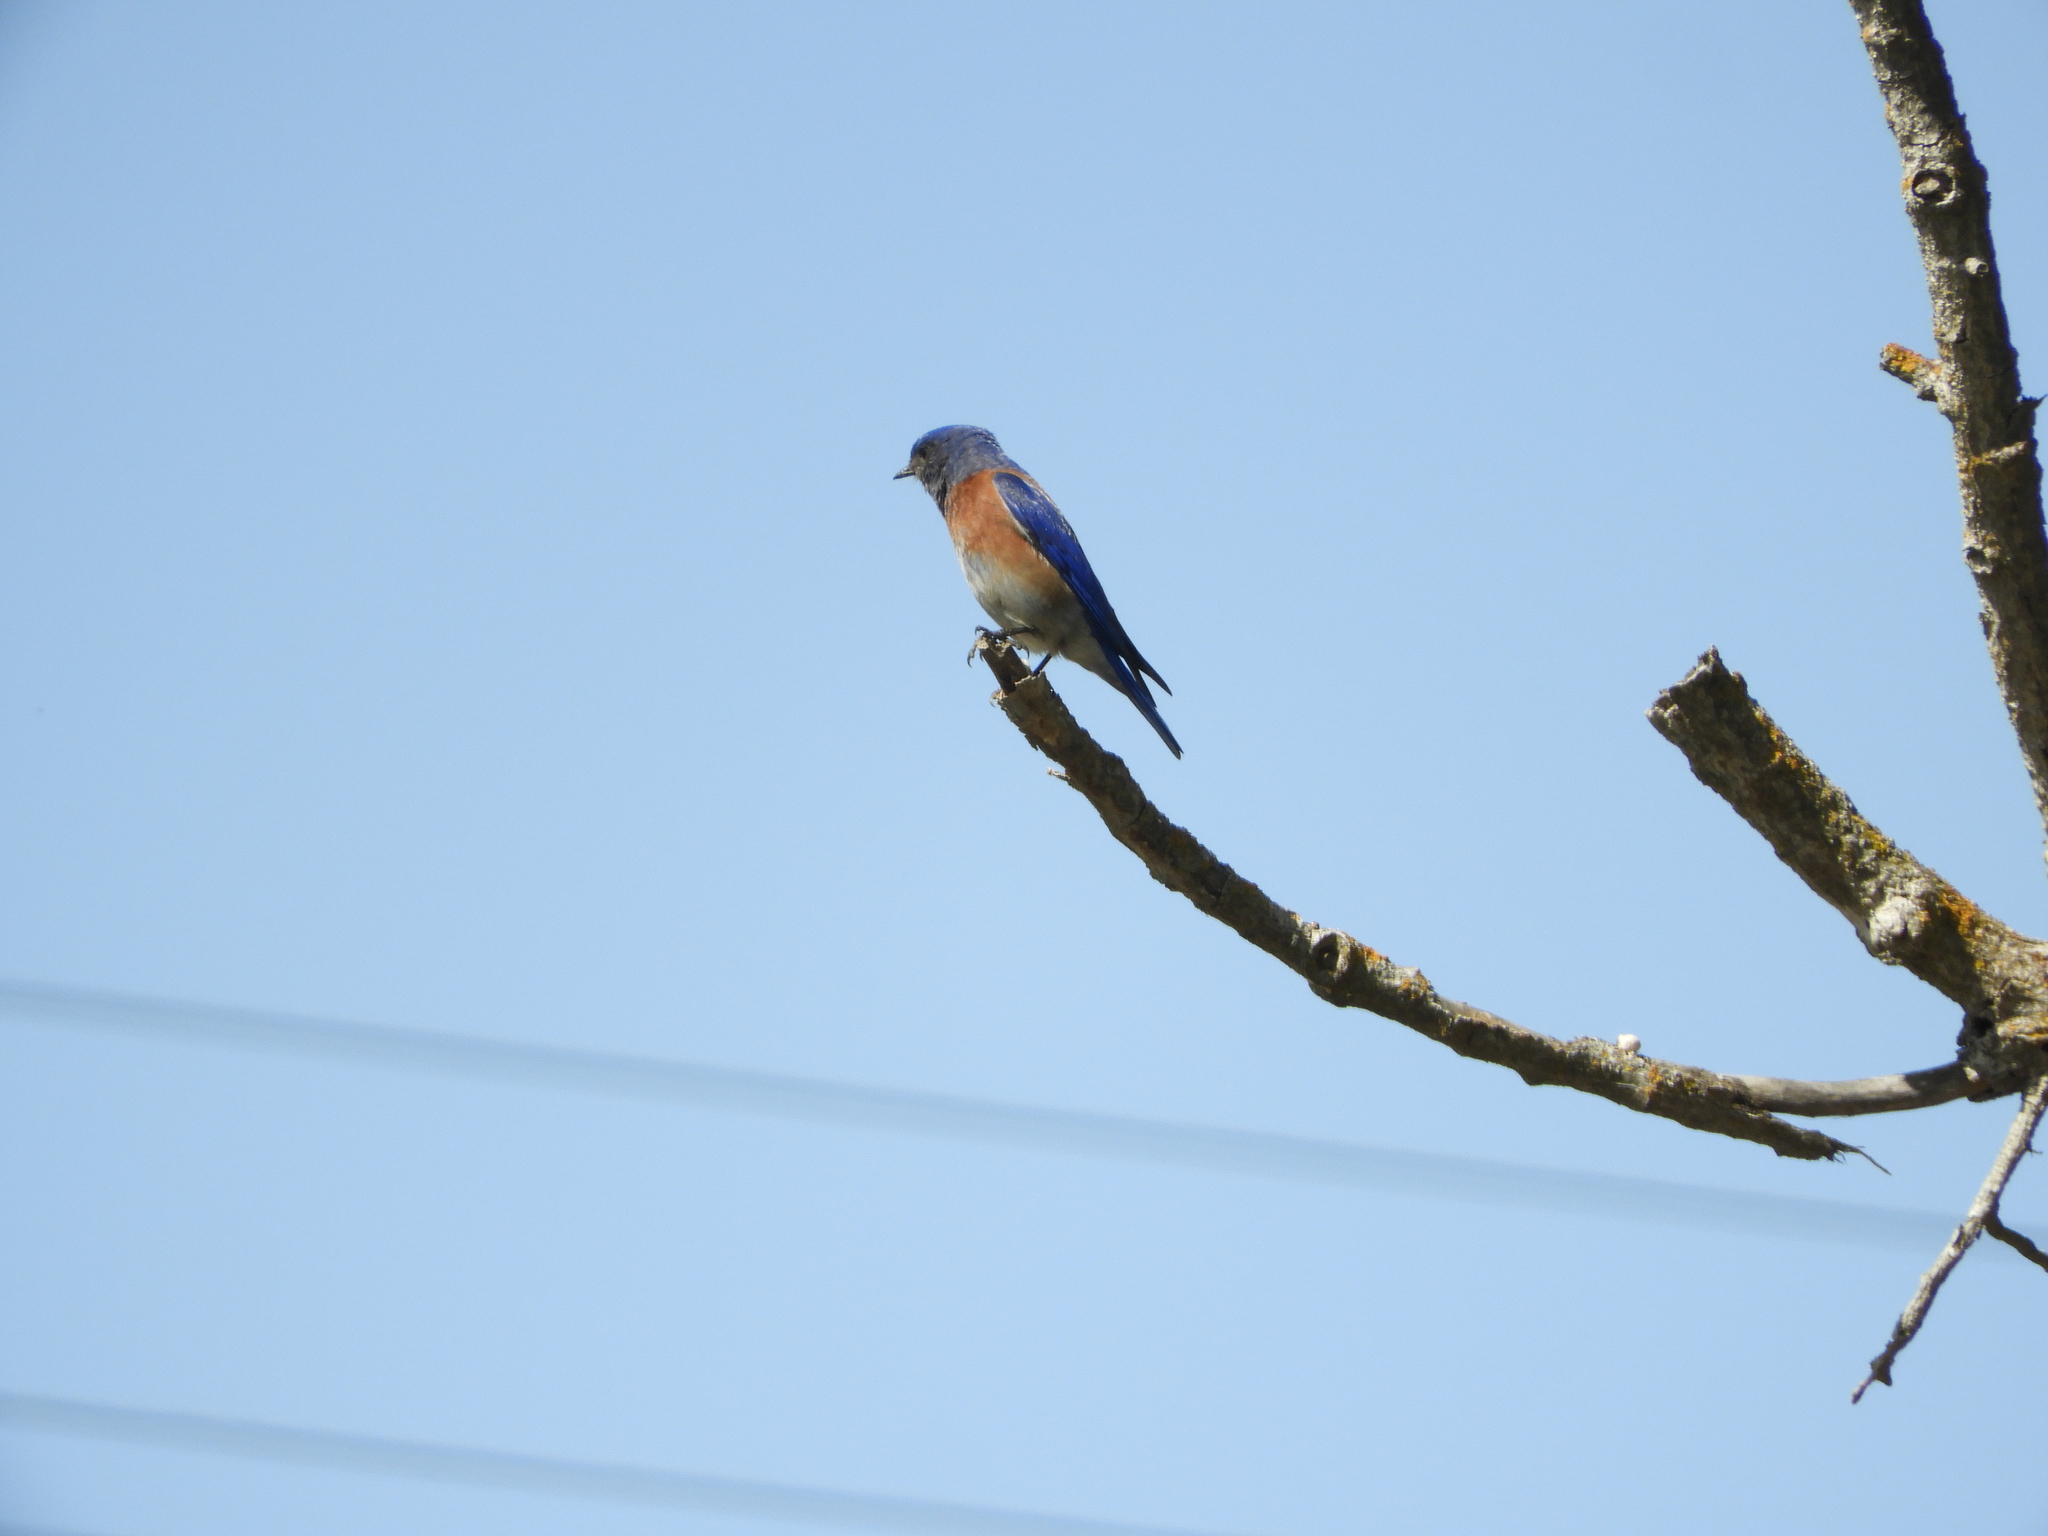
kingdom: Animalia
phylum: Chordata
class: Aves
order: Passeriformes
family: Turdidae
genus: Sialia
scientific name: Sialia mexicana
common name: Western bluebird
